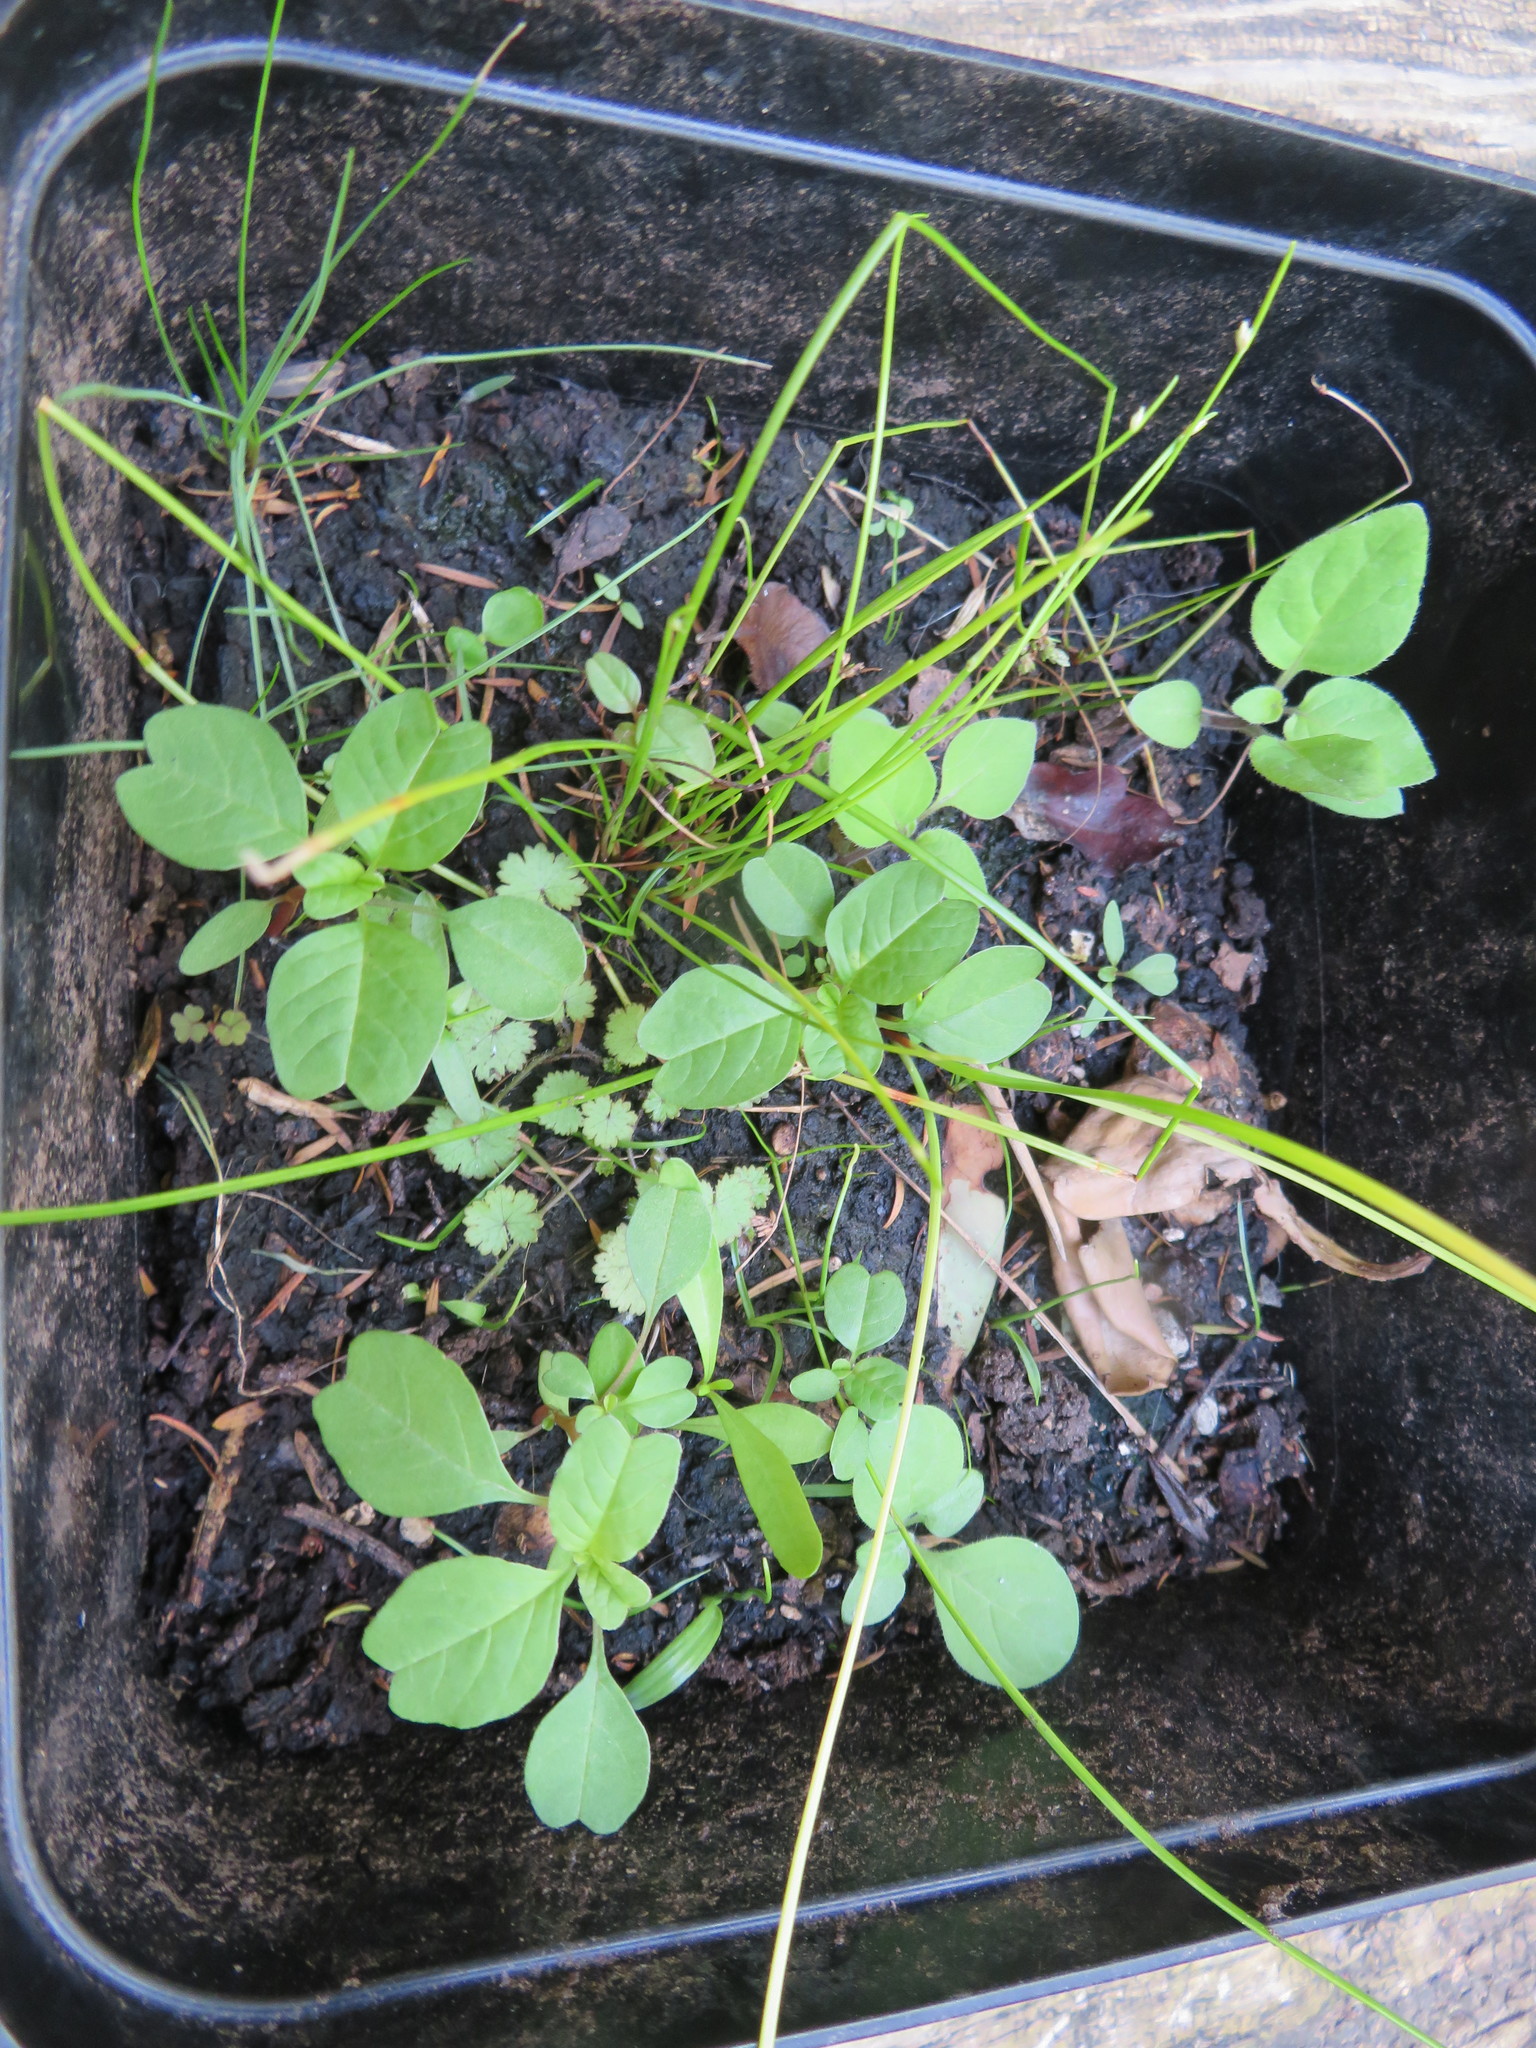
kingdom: Plantae
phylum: Tracheophyta
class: Magnoliopsida
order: Caryophyllales
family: Amaranthaceae
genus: Amaranthus
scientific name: Amaranthus blitum
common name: Purple amaranth
